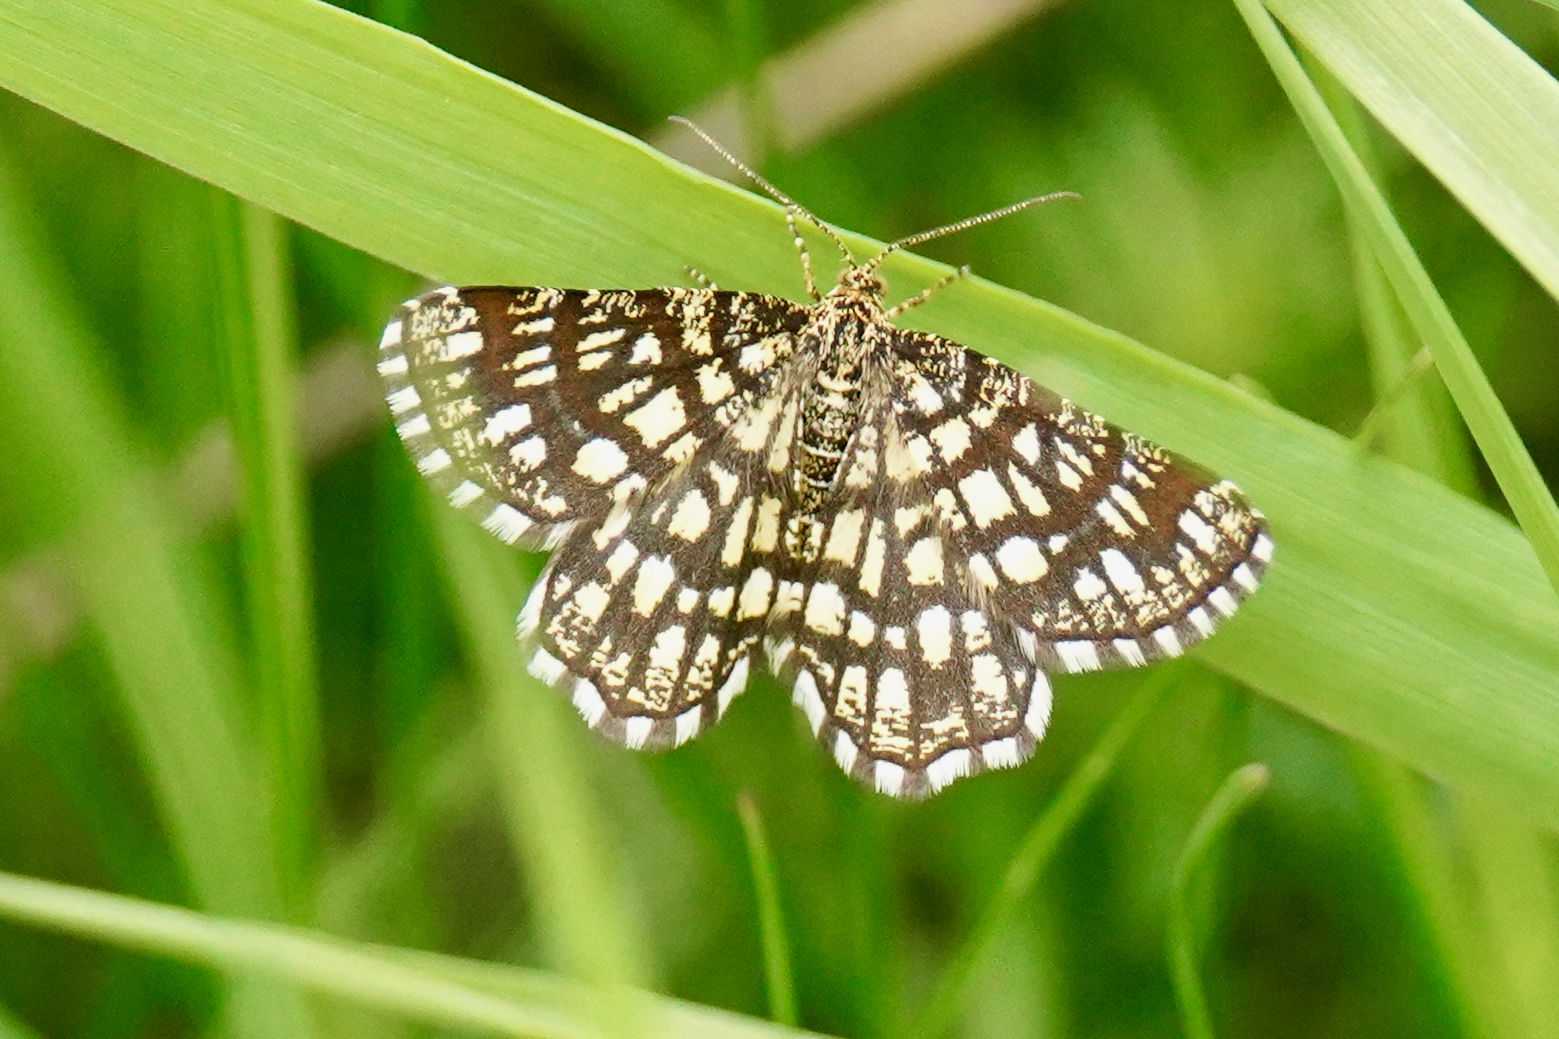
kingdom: Animalia
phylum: Arthropoda
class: Insecta
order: Lepidoptera
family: Geometridae
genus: Chiasmia
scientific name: Chiasmia clathrata
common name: Latticed heath
